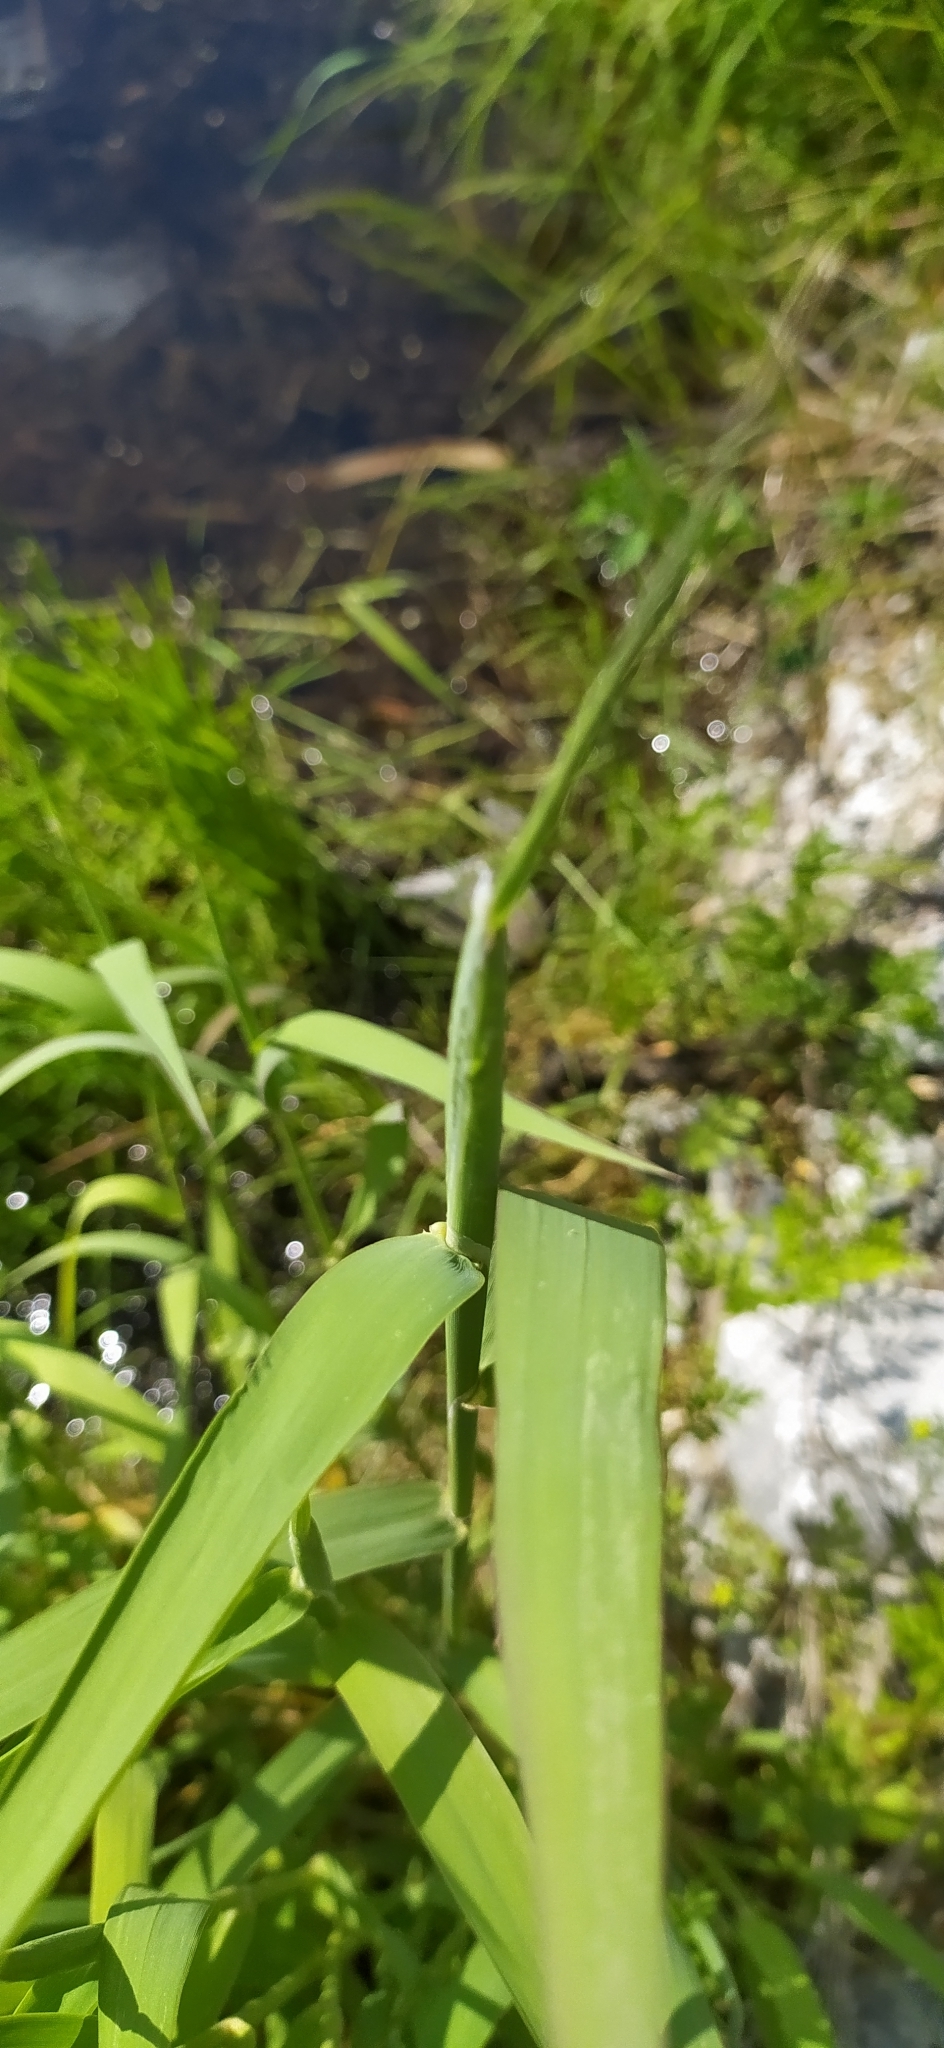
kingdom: Plantae
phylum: Tracheophyta
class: Liliopsida
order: Poales
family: Poaceae
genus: Phalaris
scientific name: Phalaris arundinacea
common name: Reed canary-grass
